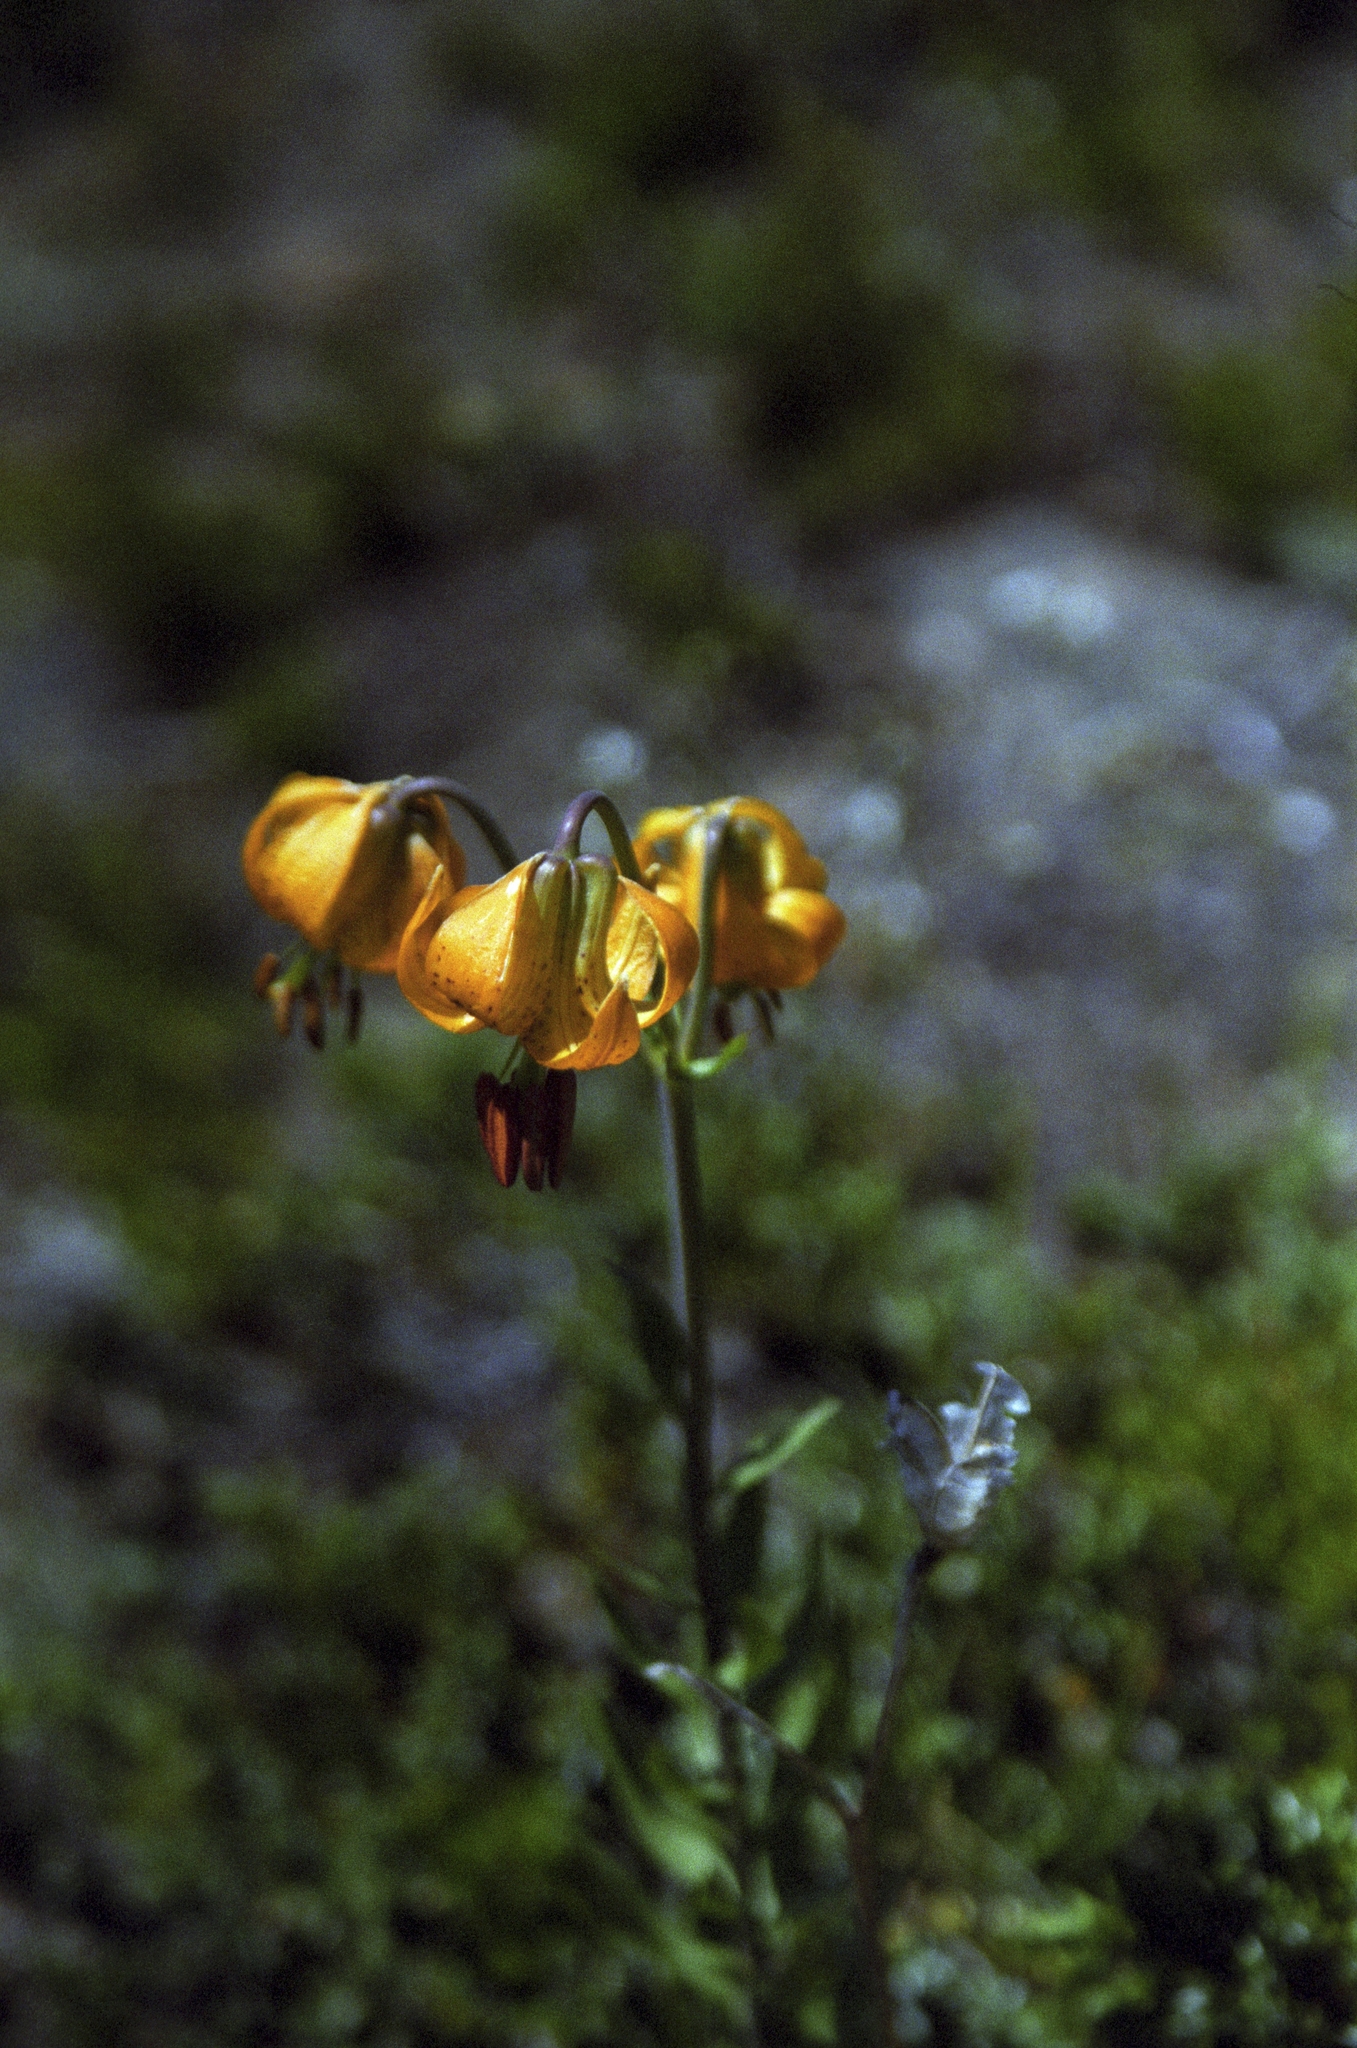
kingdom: Plantae
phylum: Tracheophyta
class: Liliopsida
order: Liliales
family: Liliaceae
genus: Lilium
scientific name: Lilium columbianum
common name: Columbia lily
